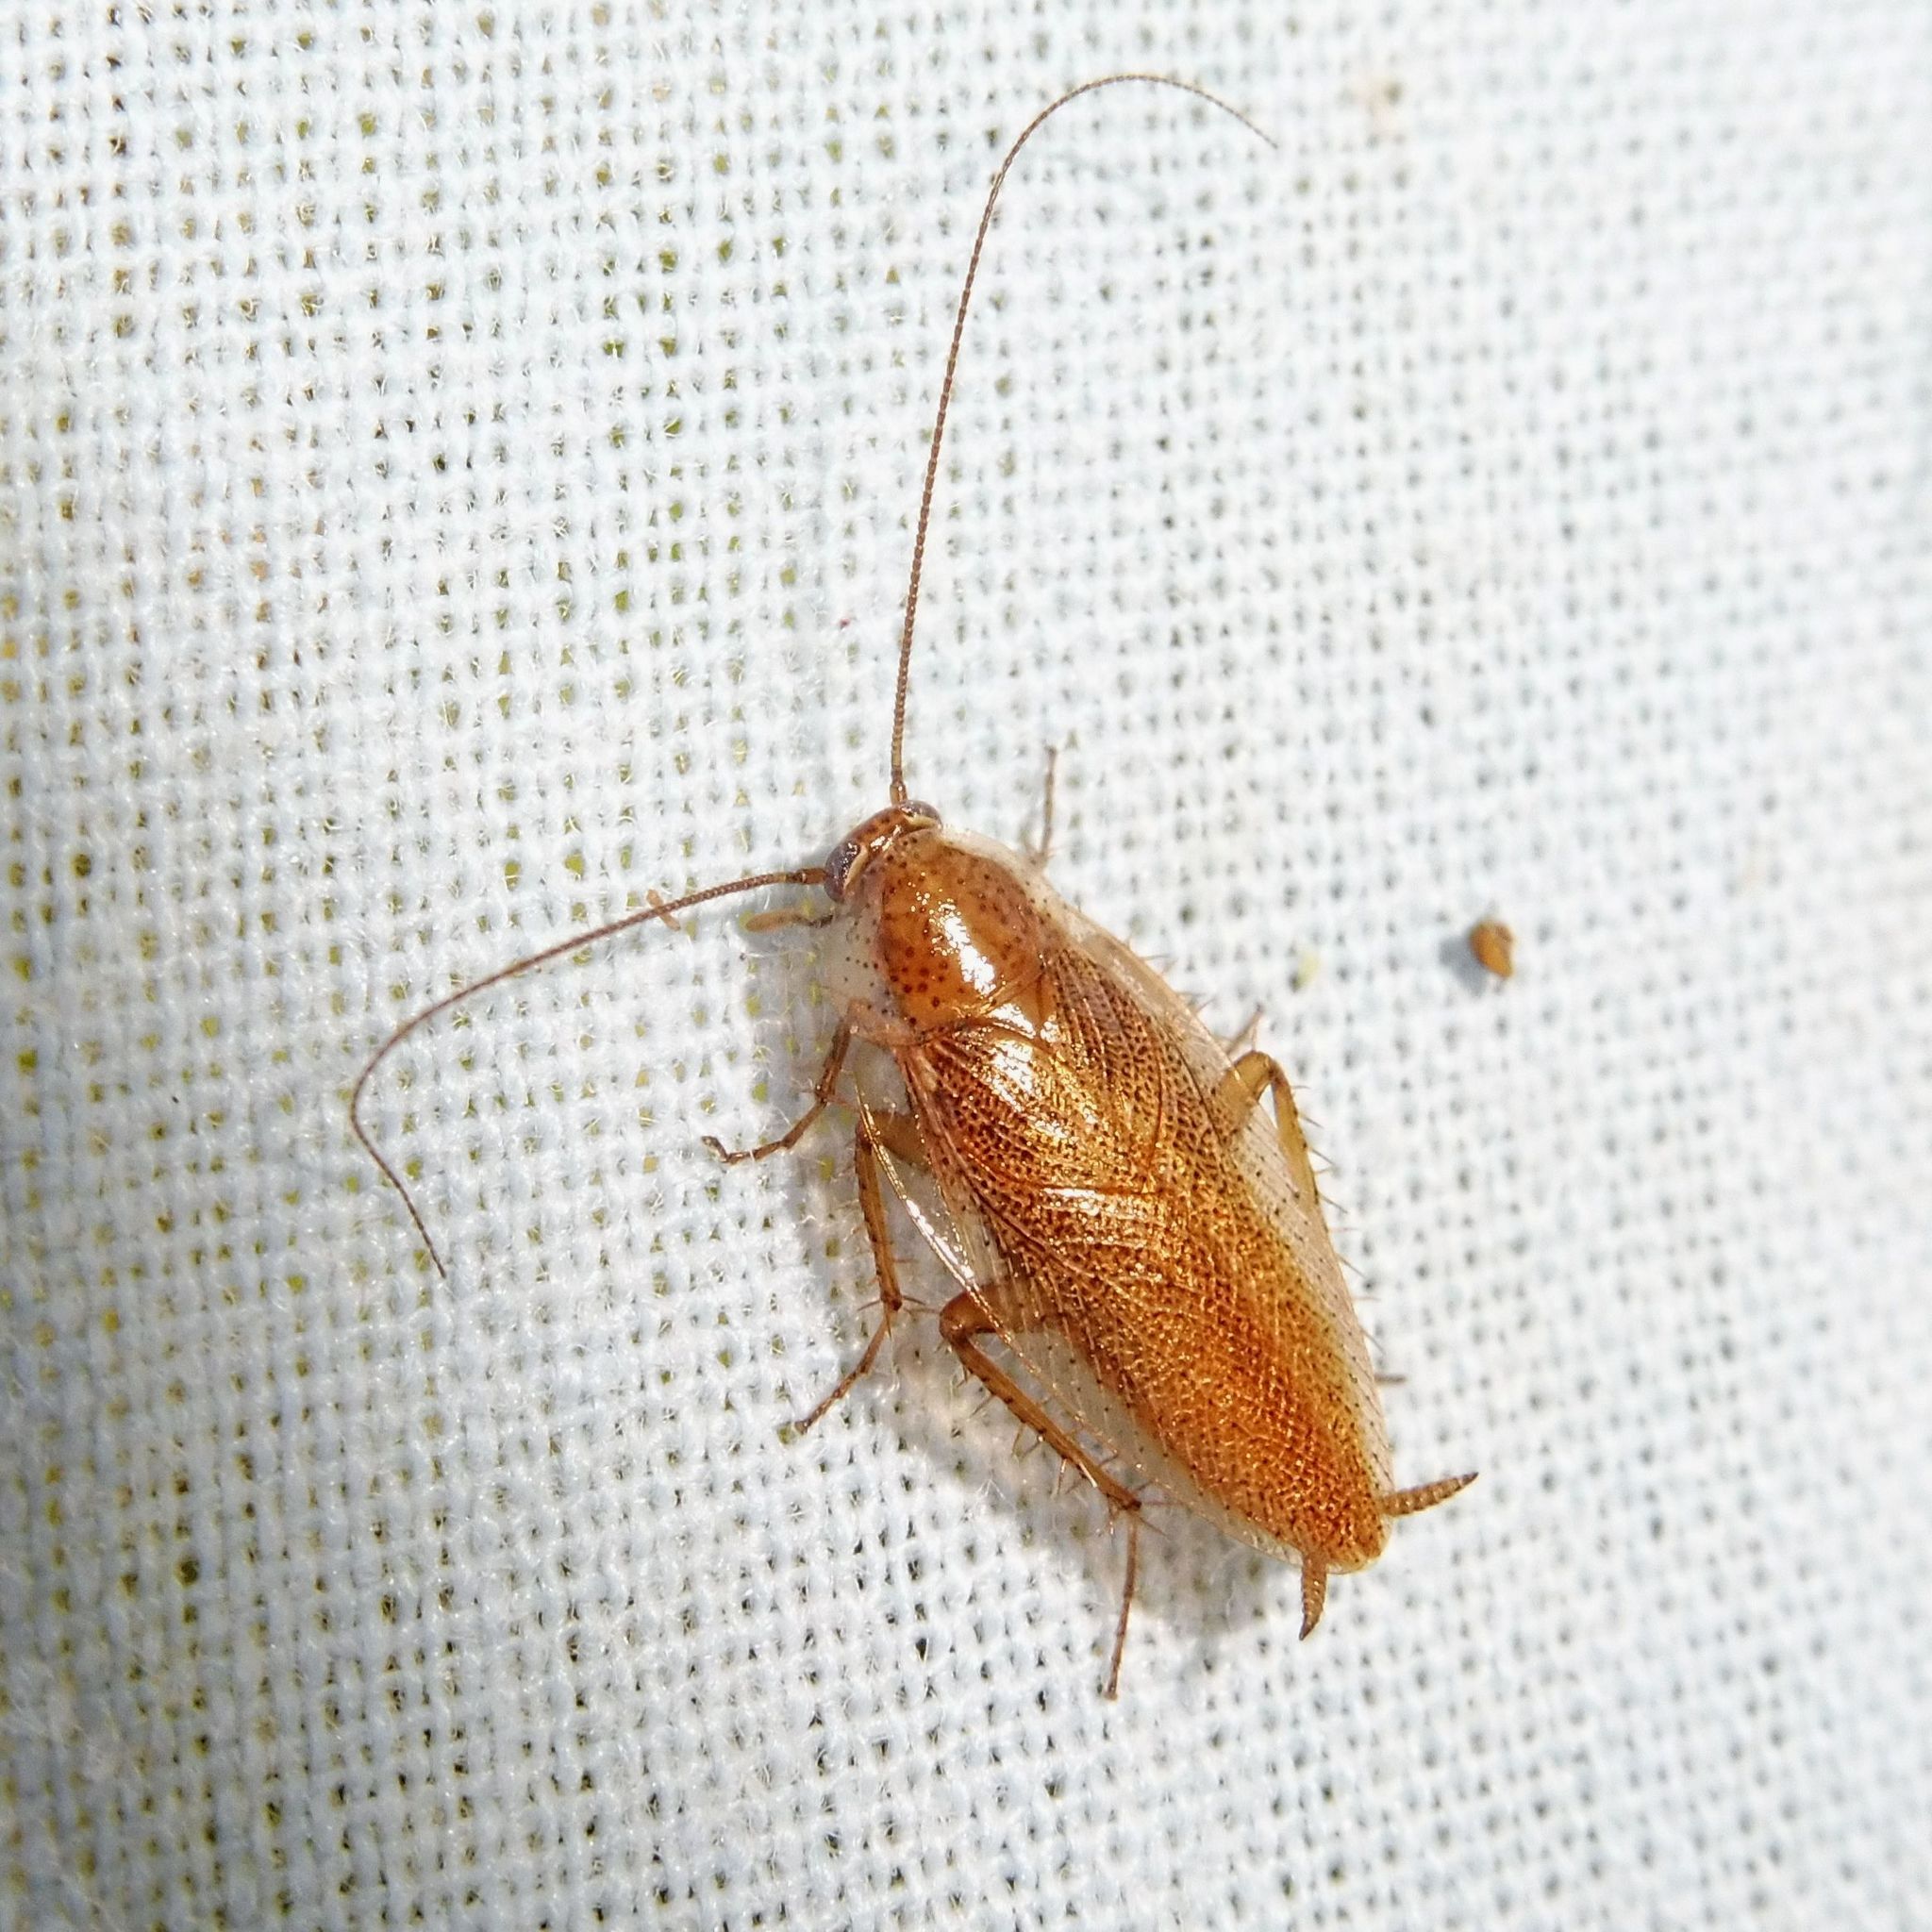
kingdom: Animalia
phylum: Arthropoda
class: Insecta
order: Blattodea
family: Ectobiidae
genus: Ectobius
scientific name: Ectobius pallidus
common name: Tawny cockroach
